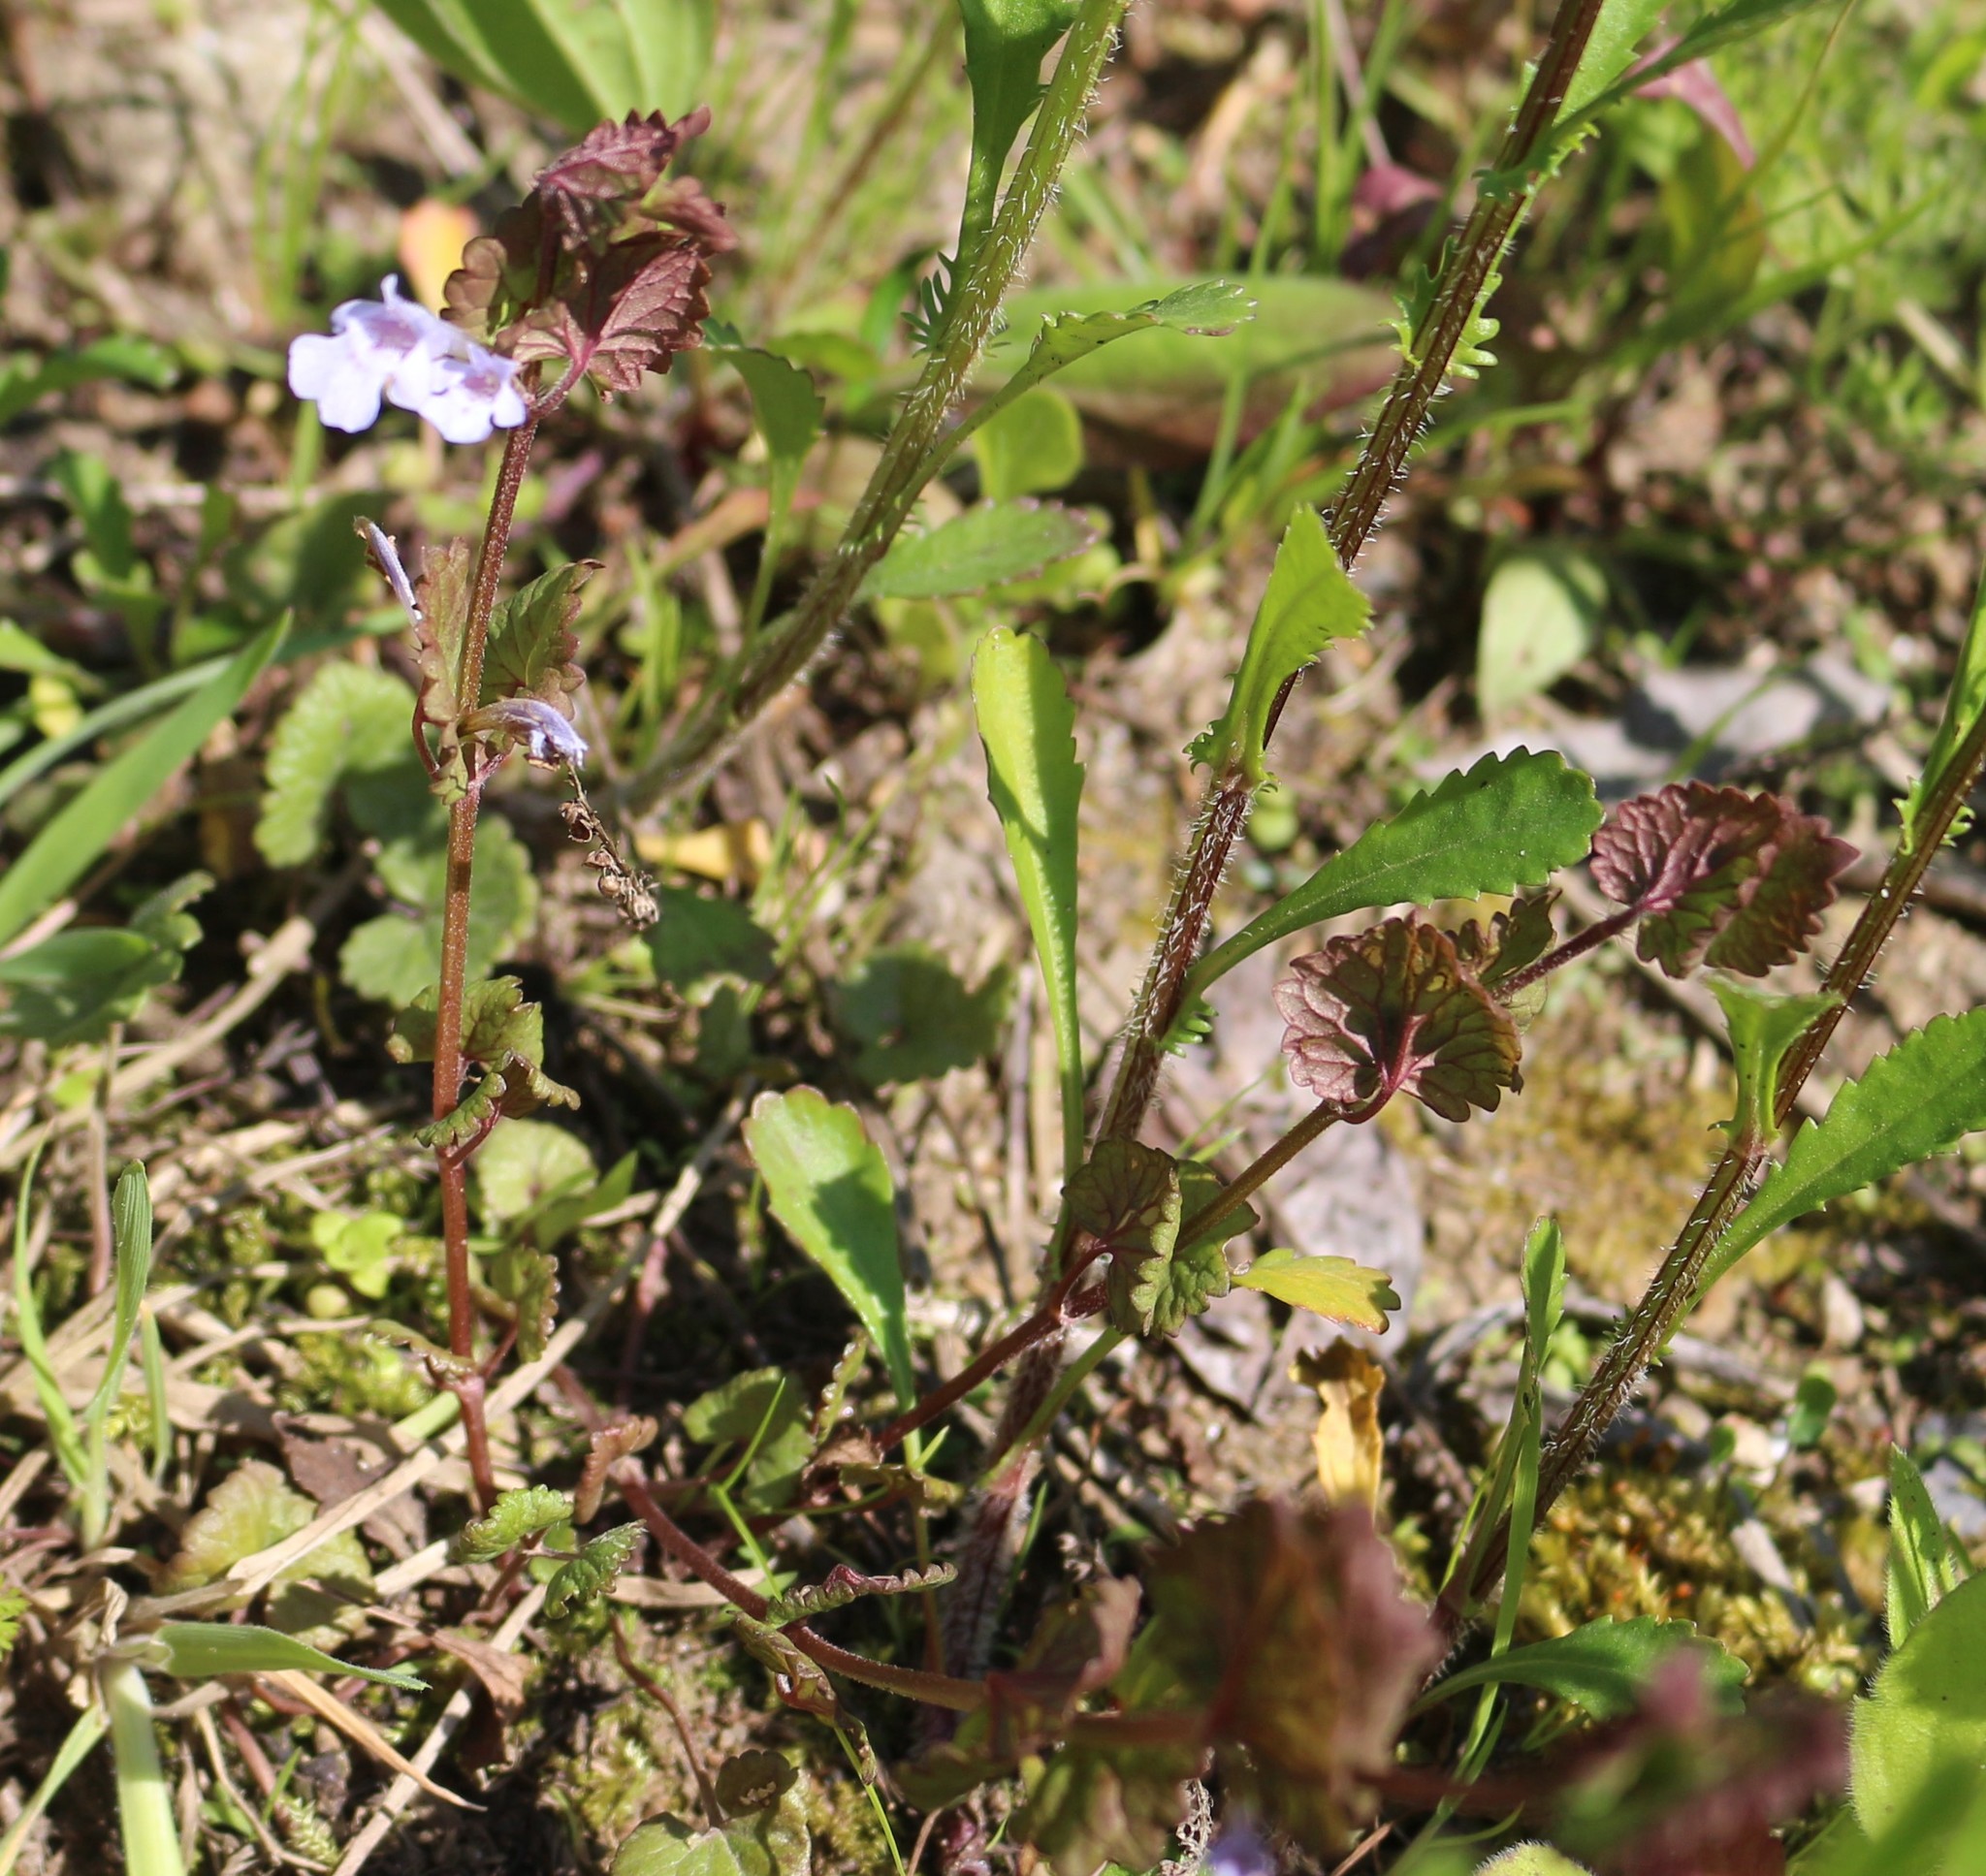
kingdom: Plantae
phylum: Tracheophyta
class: Magnoliopsida
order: Lamiales
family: Lamiaceae
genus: Glechoma
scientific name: Glechoma hederacea
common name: Ground ivy
